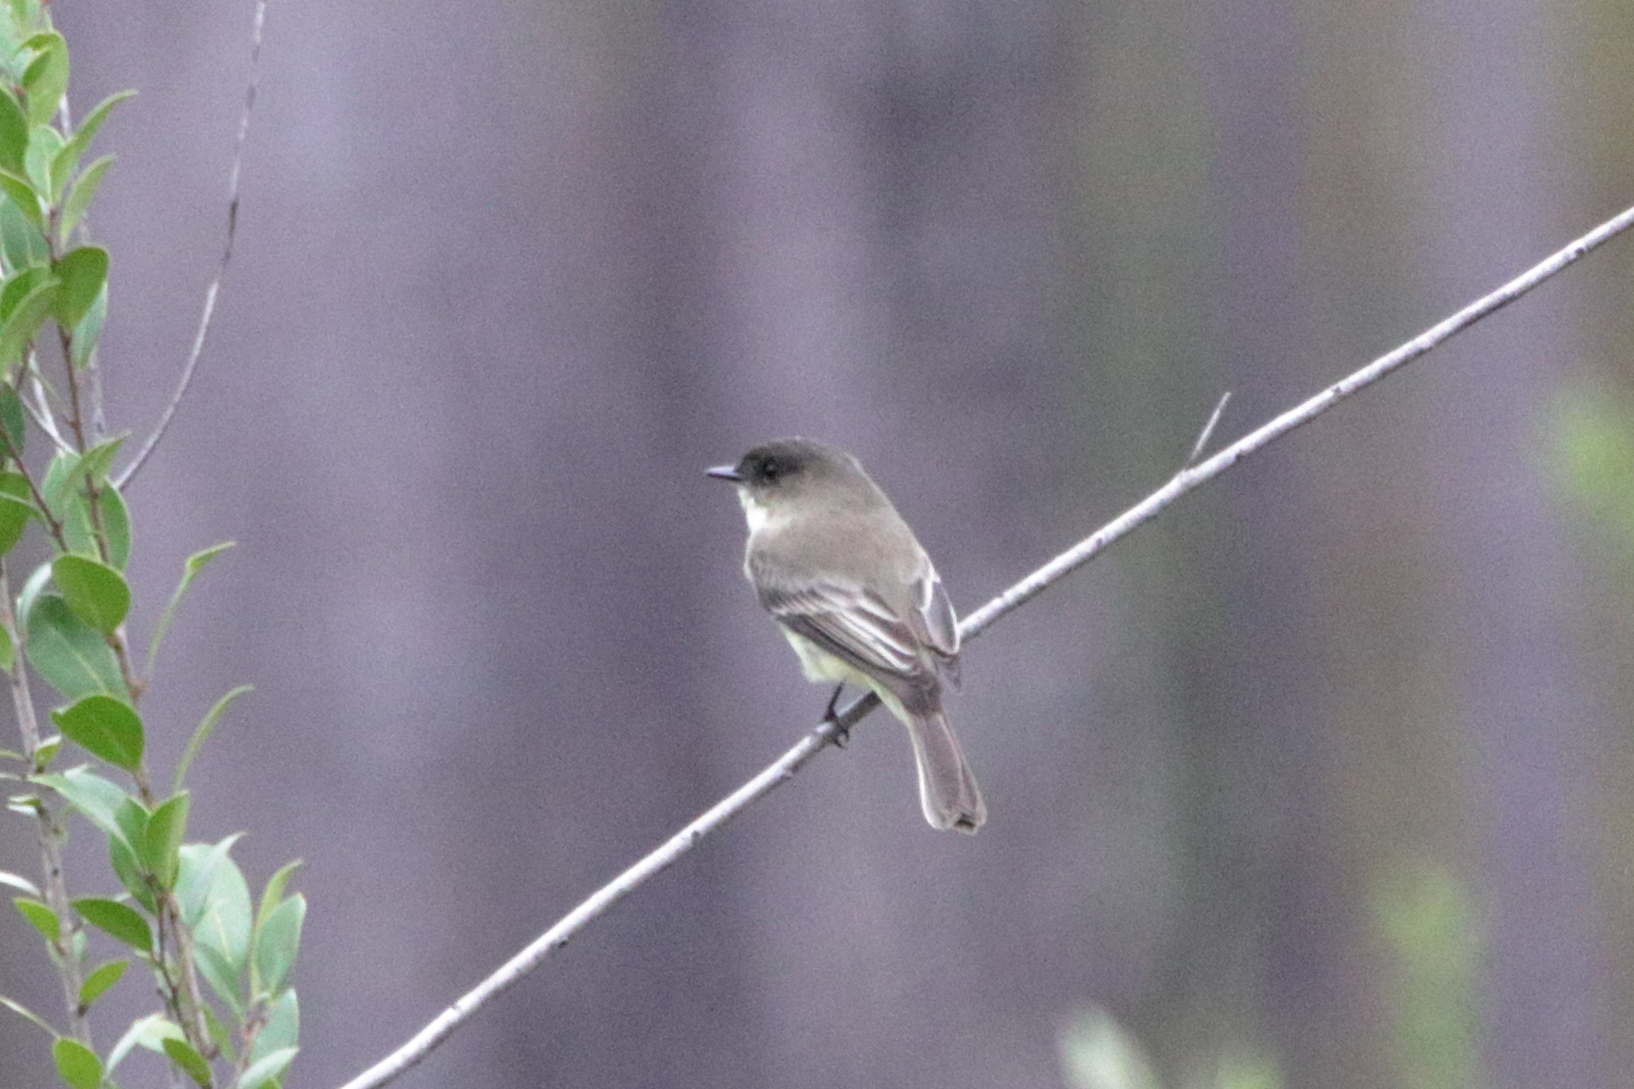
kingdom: Animalia
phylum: Chordata
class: Aves
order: Passeriformes
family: Tyrannidae
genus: Sayornis
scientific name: Sayornis phoebe
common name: Eastern phoebe
